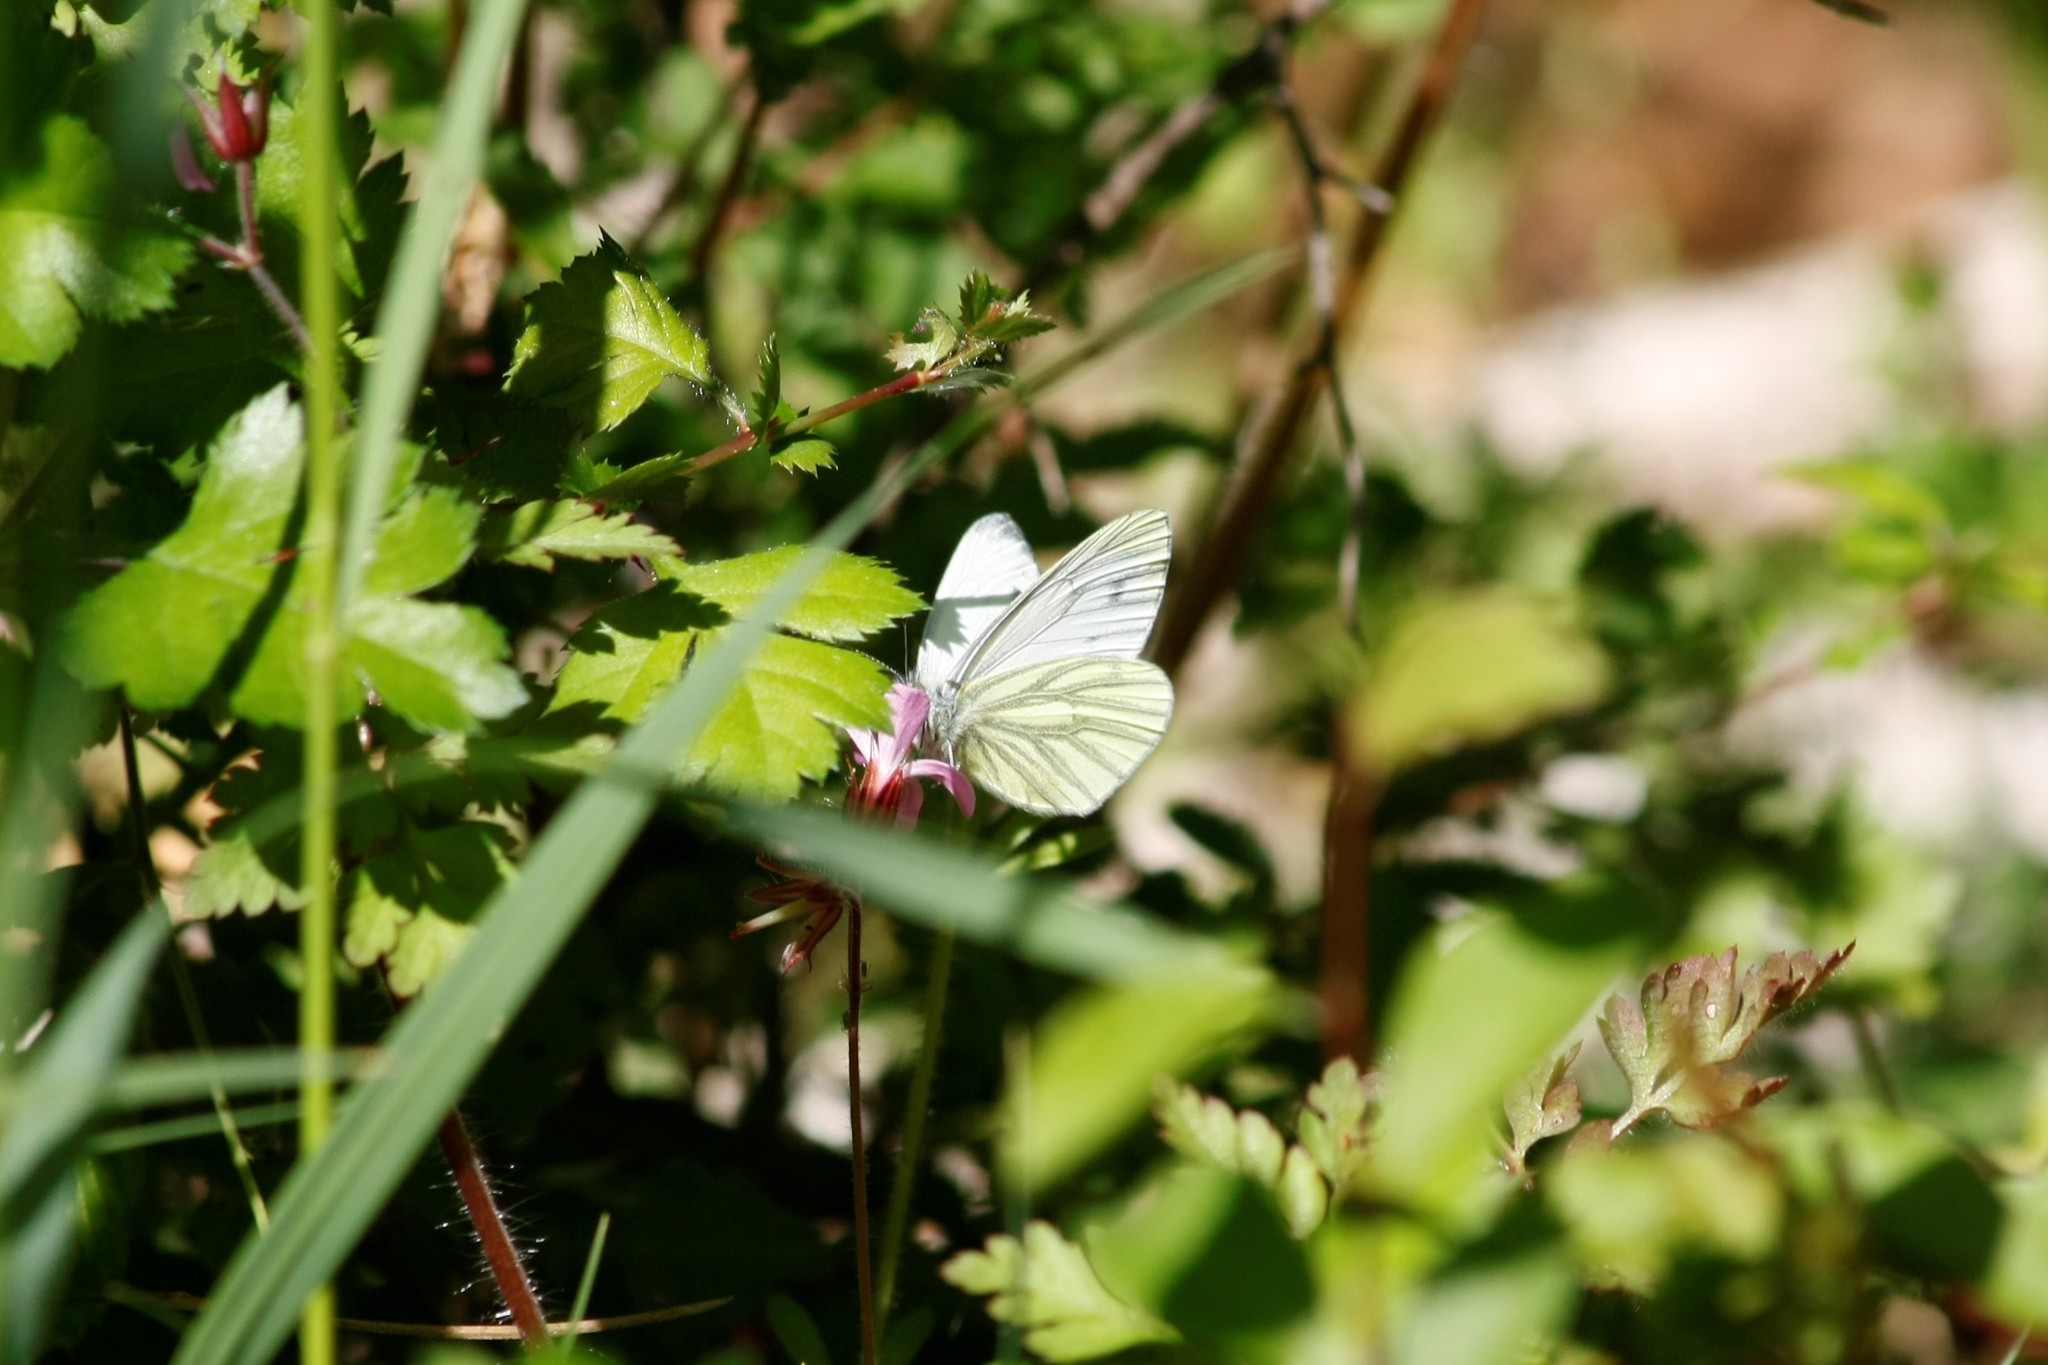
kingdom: Animalia
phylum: Arthropoda
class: Insecta
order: Lepidoptera
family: Pieridae
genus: Pieris
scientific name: Pieris napi
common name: Green-veined white
